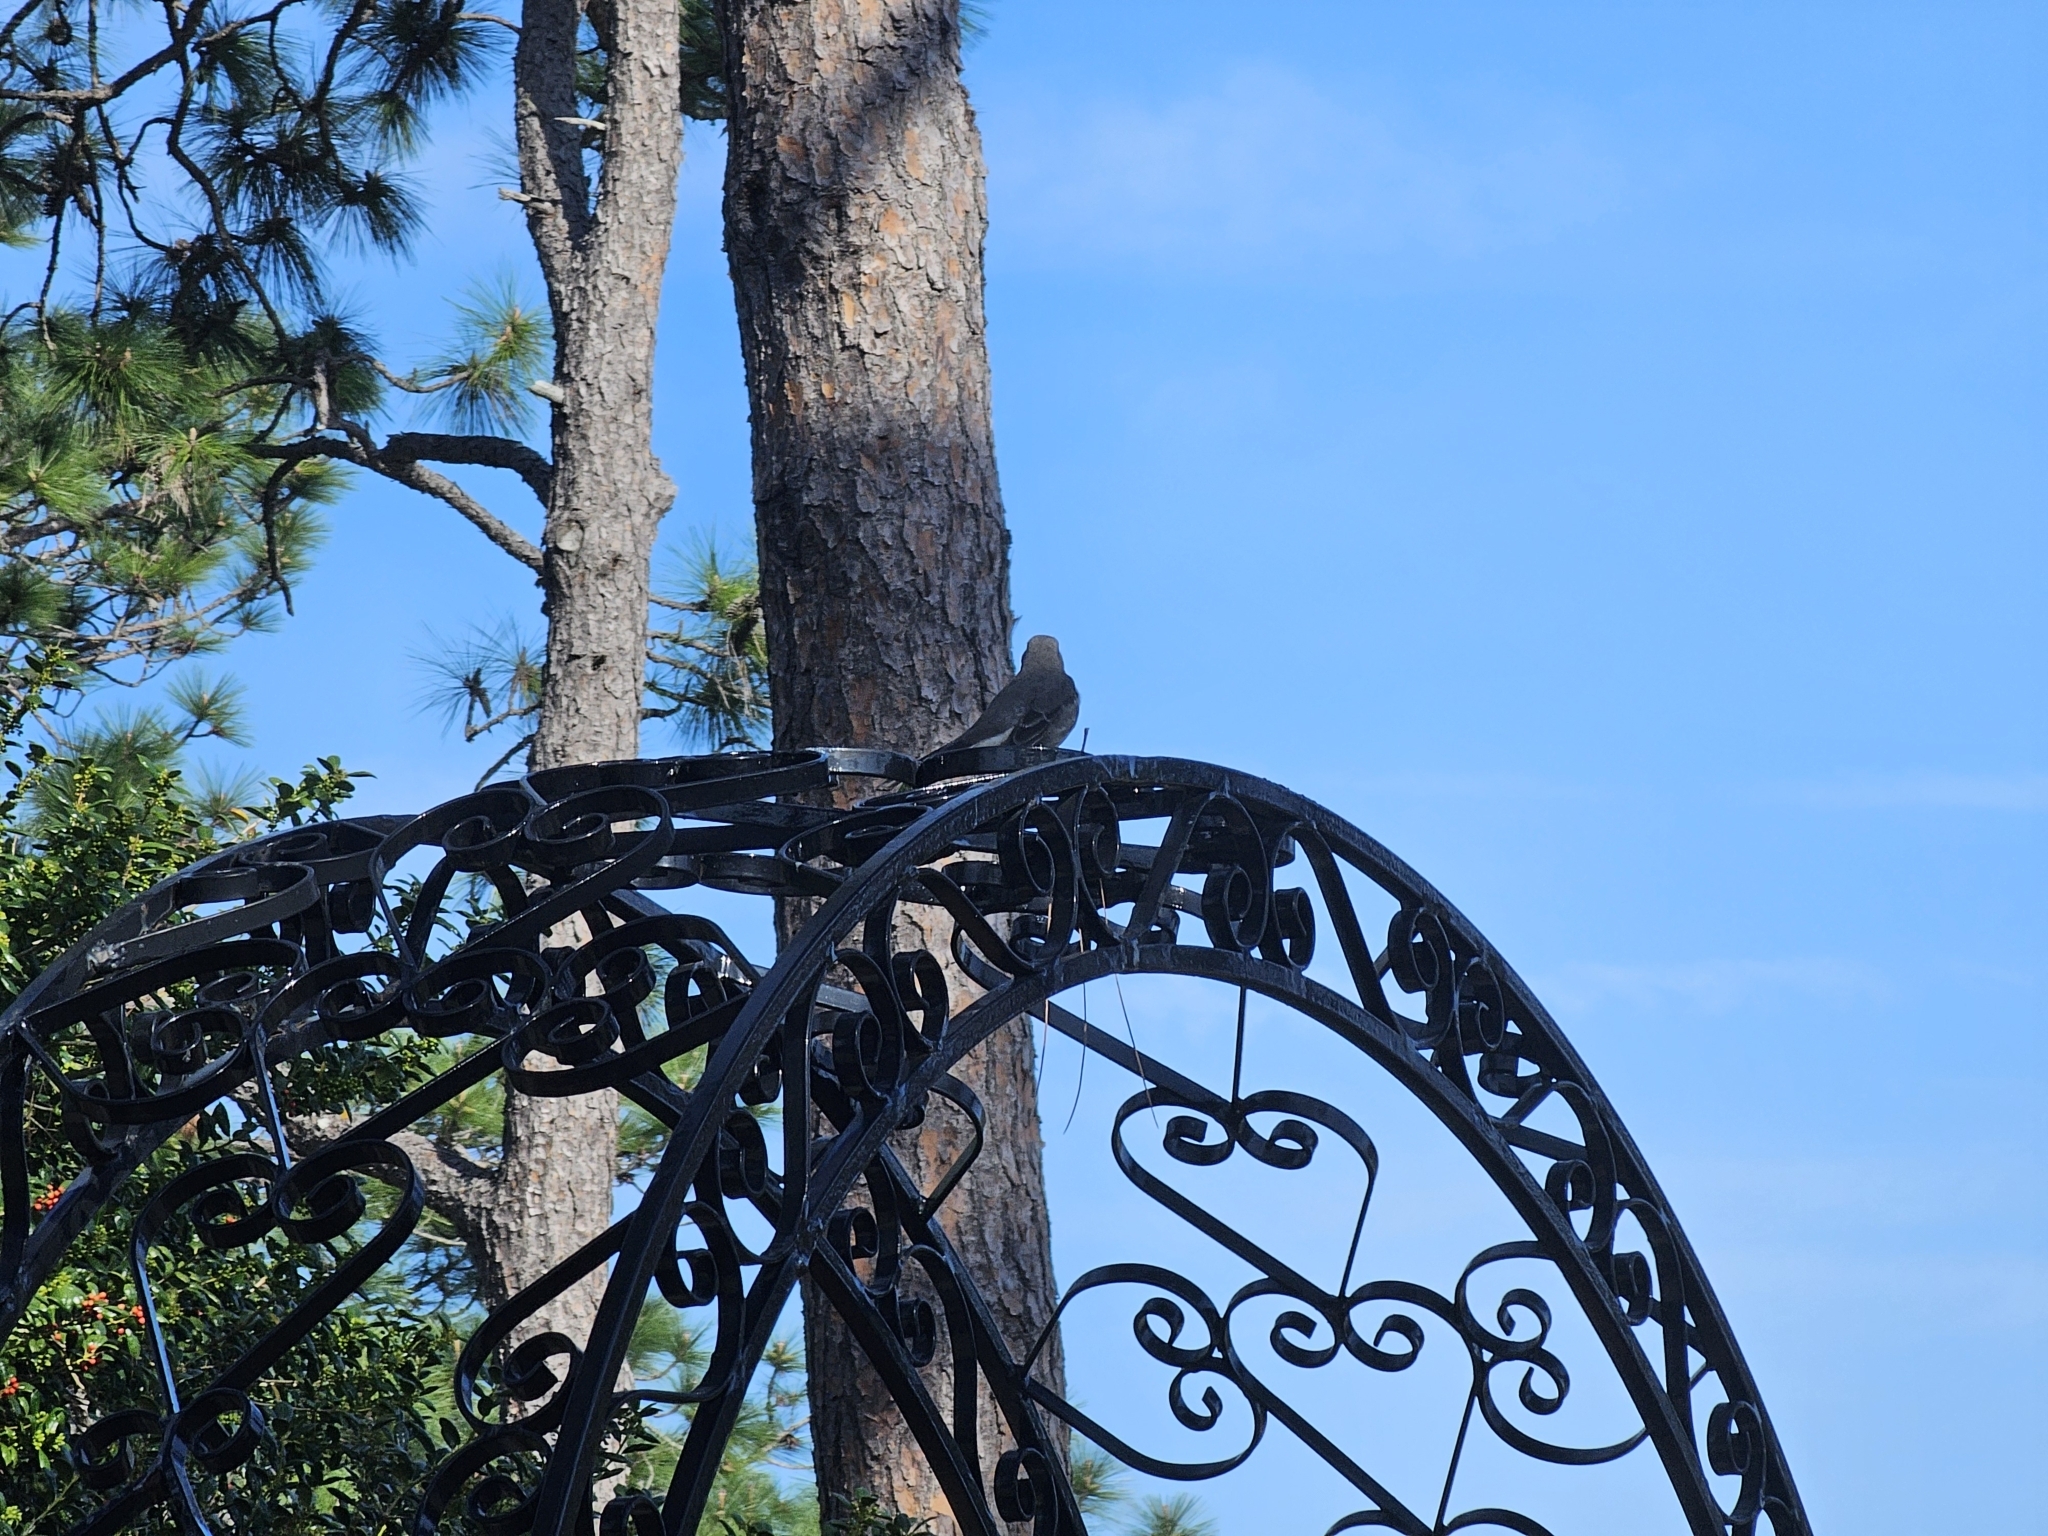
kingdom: Animalia
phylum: Chordata
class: Aves
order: Passeriformes
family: Mimidae
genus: Mimus
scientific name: Mimus polyglottos
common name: Northern mockingbird
